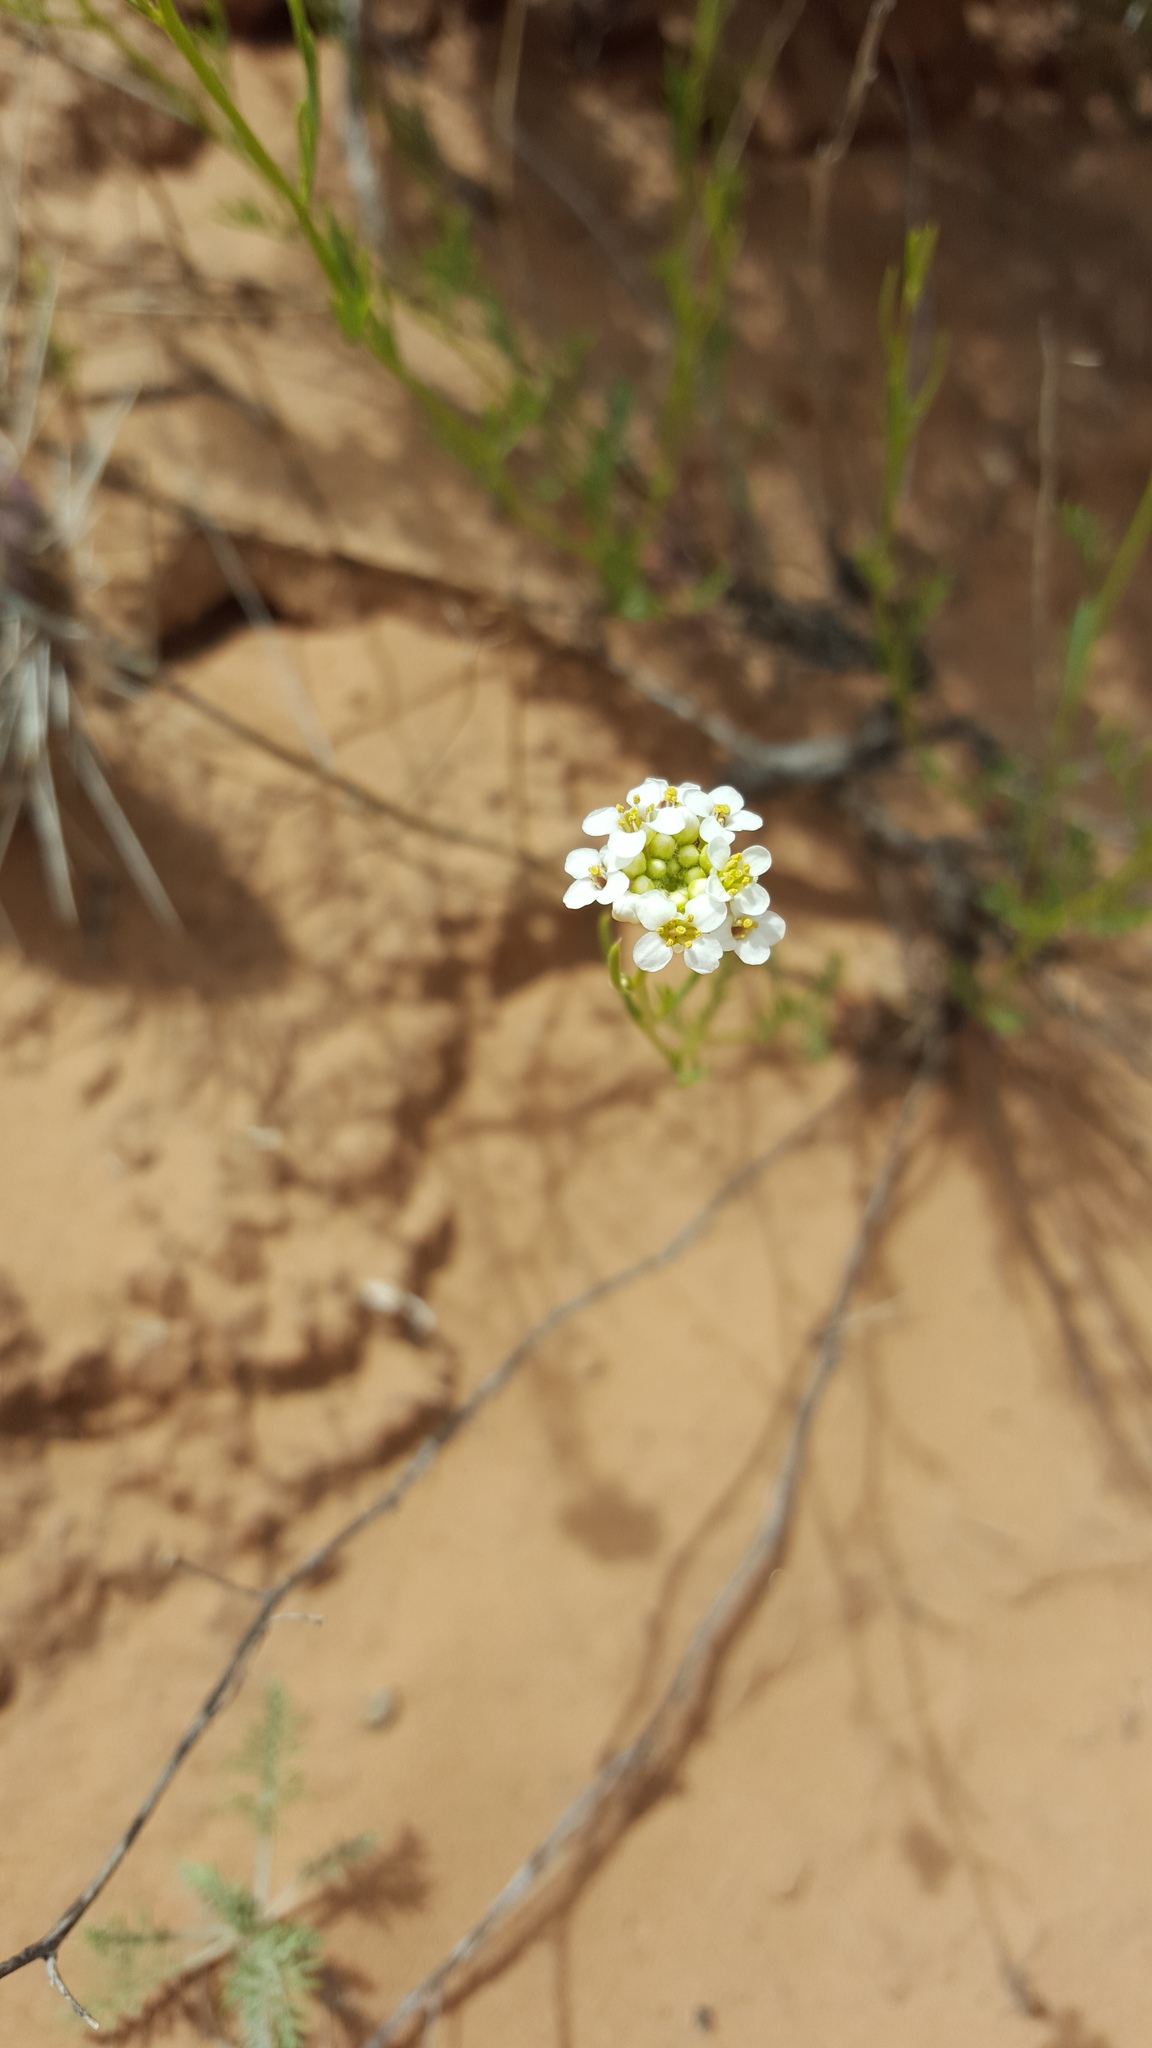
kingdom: Plantae
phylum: Tracheophyta
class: Magnoliopsida
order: Brassicales
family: Brassicaceae
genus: Lepidium
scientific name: Lepidium montanum
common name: Mountain pepperplant
